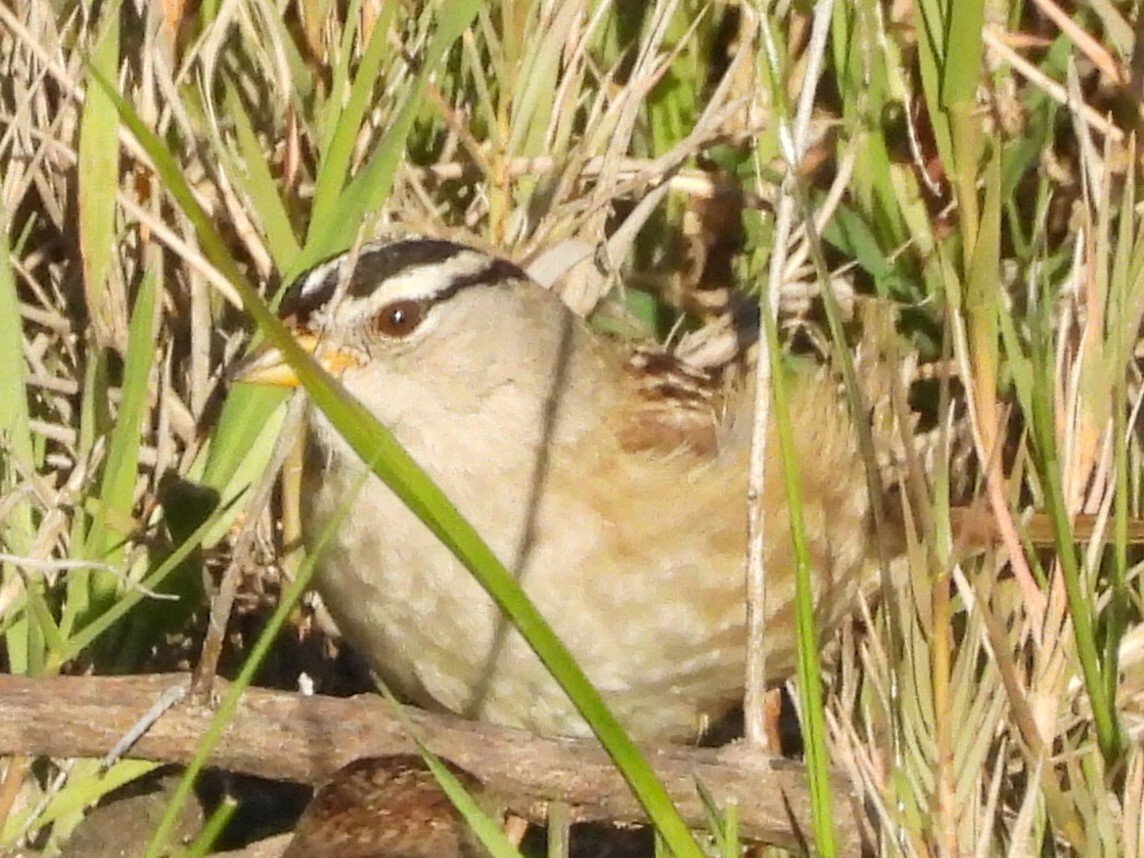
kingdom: Animalia
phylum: Chordata
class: Aves
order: Passeriformes
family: Passerellidae
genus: Zonotrichia
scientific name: Zonotrichia leucophrys
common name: White-crowned sparrow
